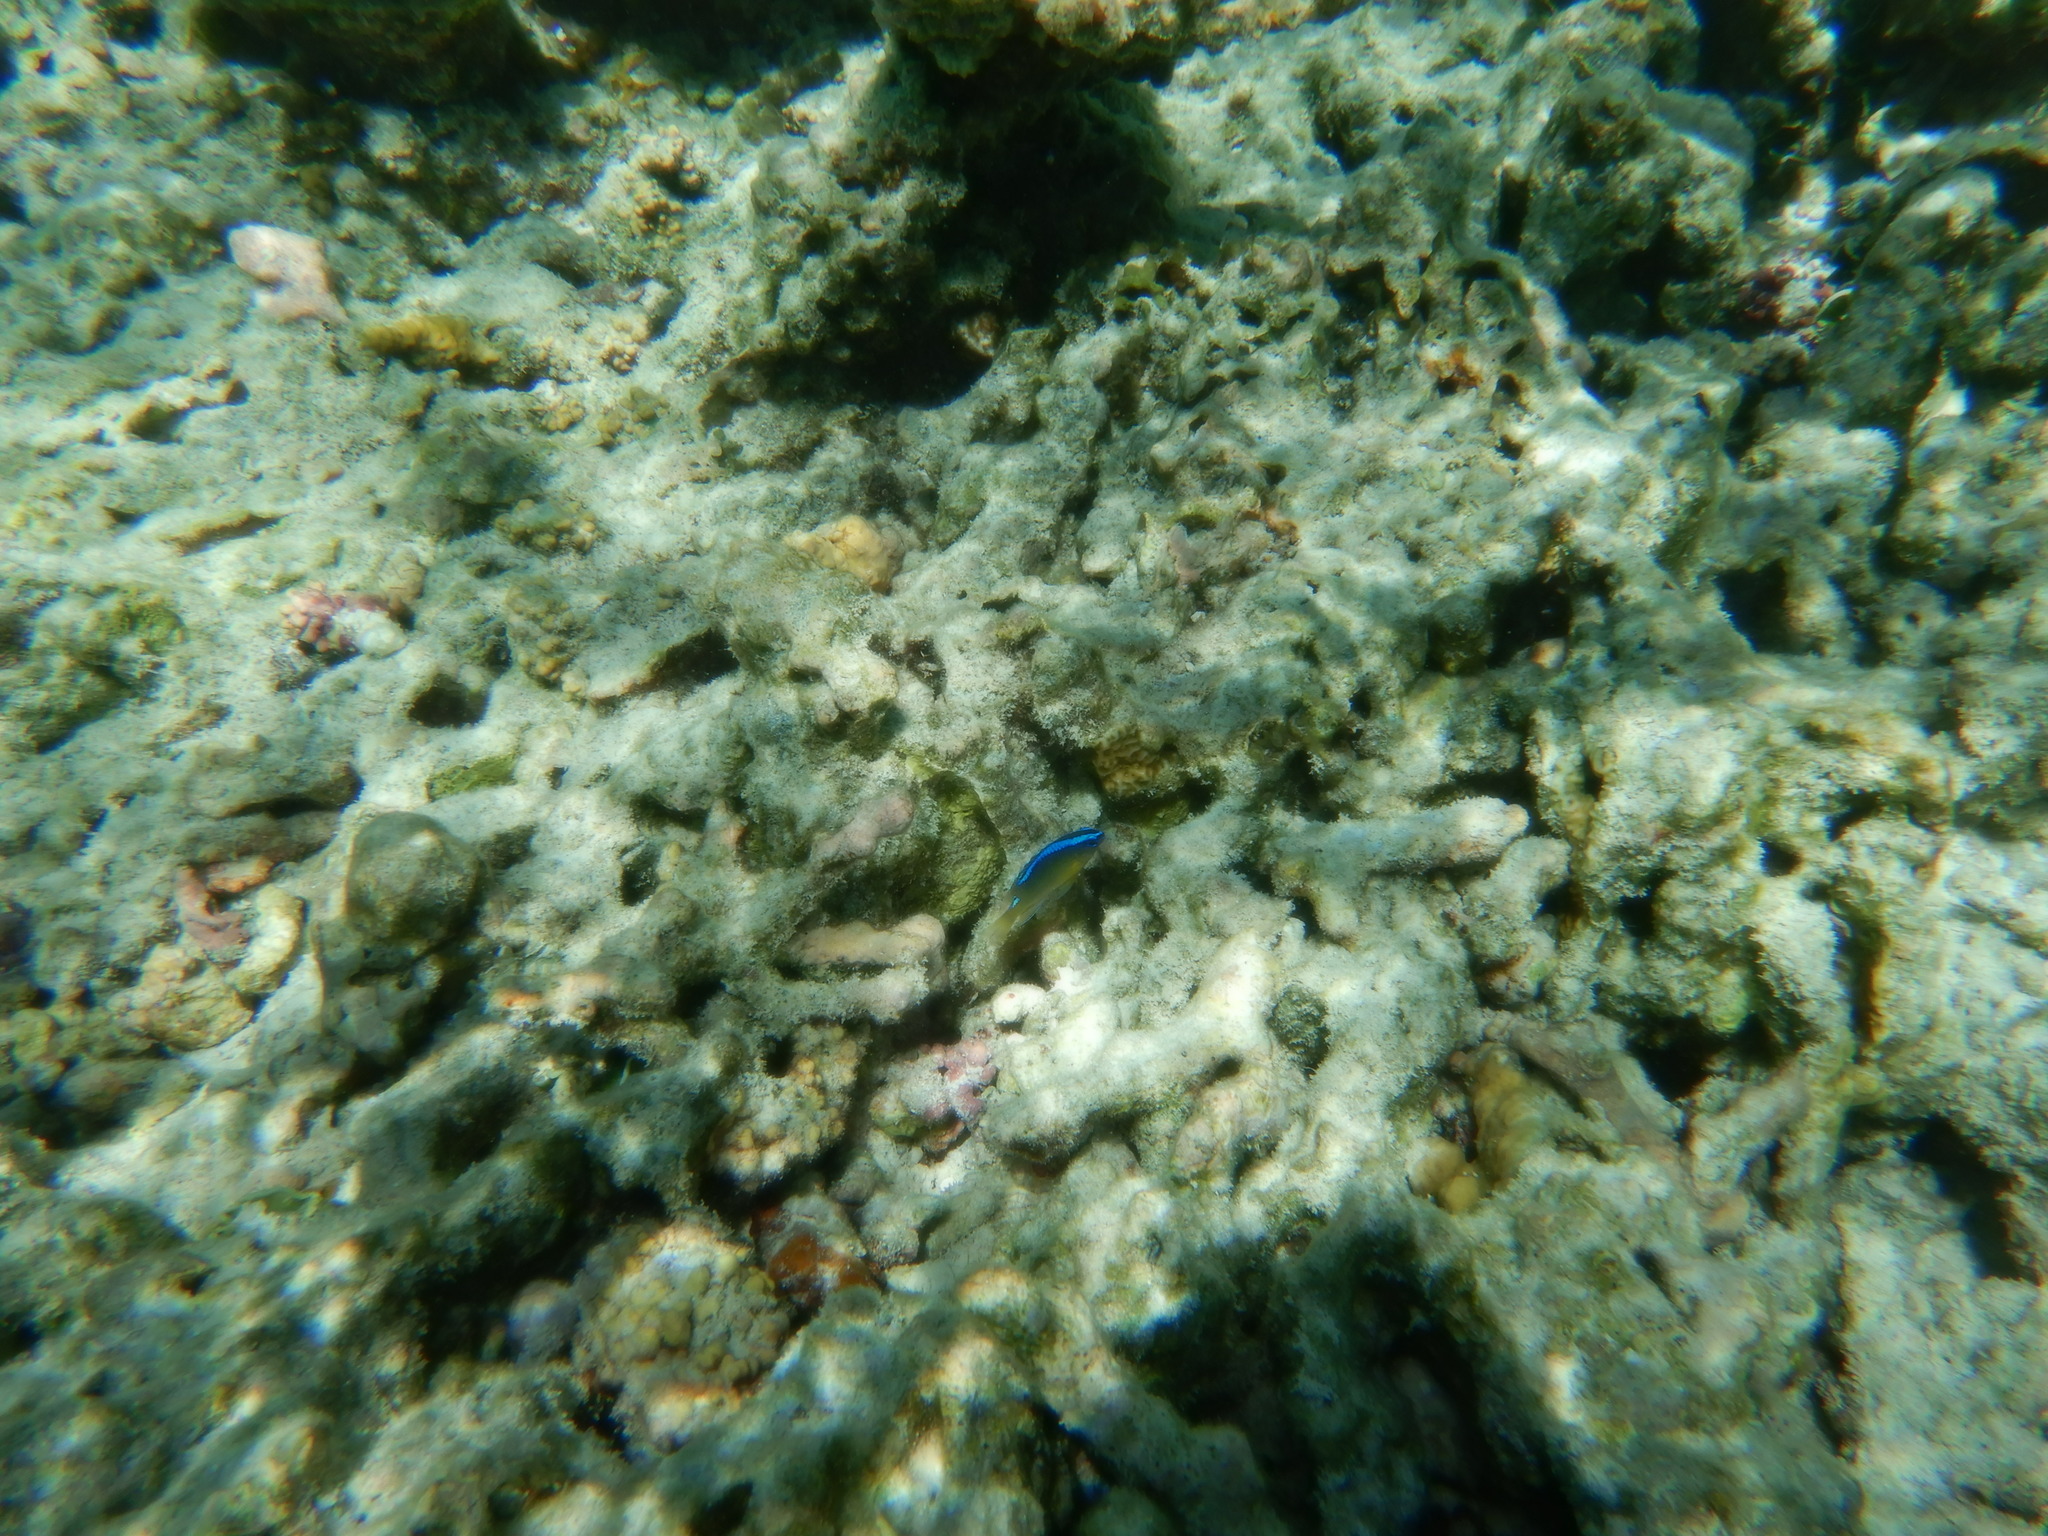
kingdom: Animalia
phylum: Chordata
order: Perciformes
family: Pomacentridae
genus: Chrysiptera
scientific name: Chrysiptera brownriggii
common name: Surge demoiselle
